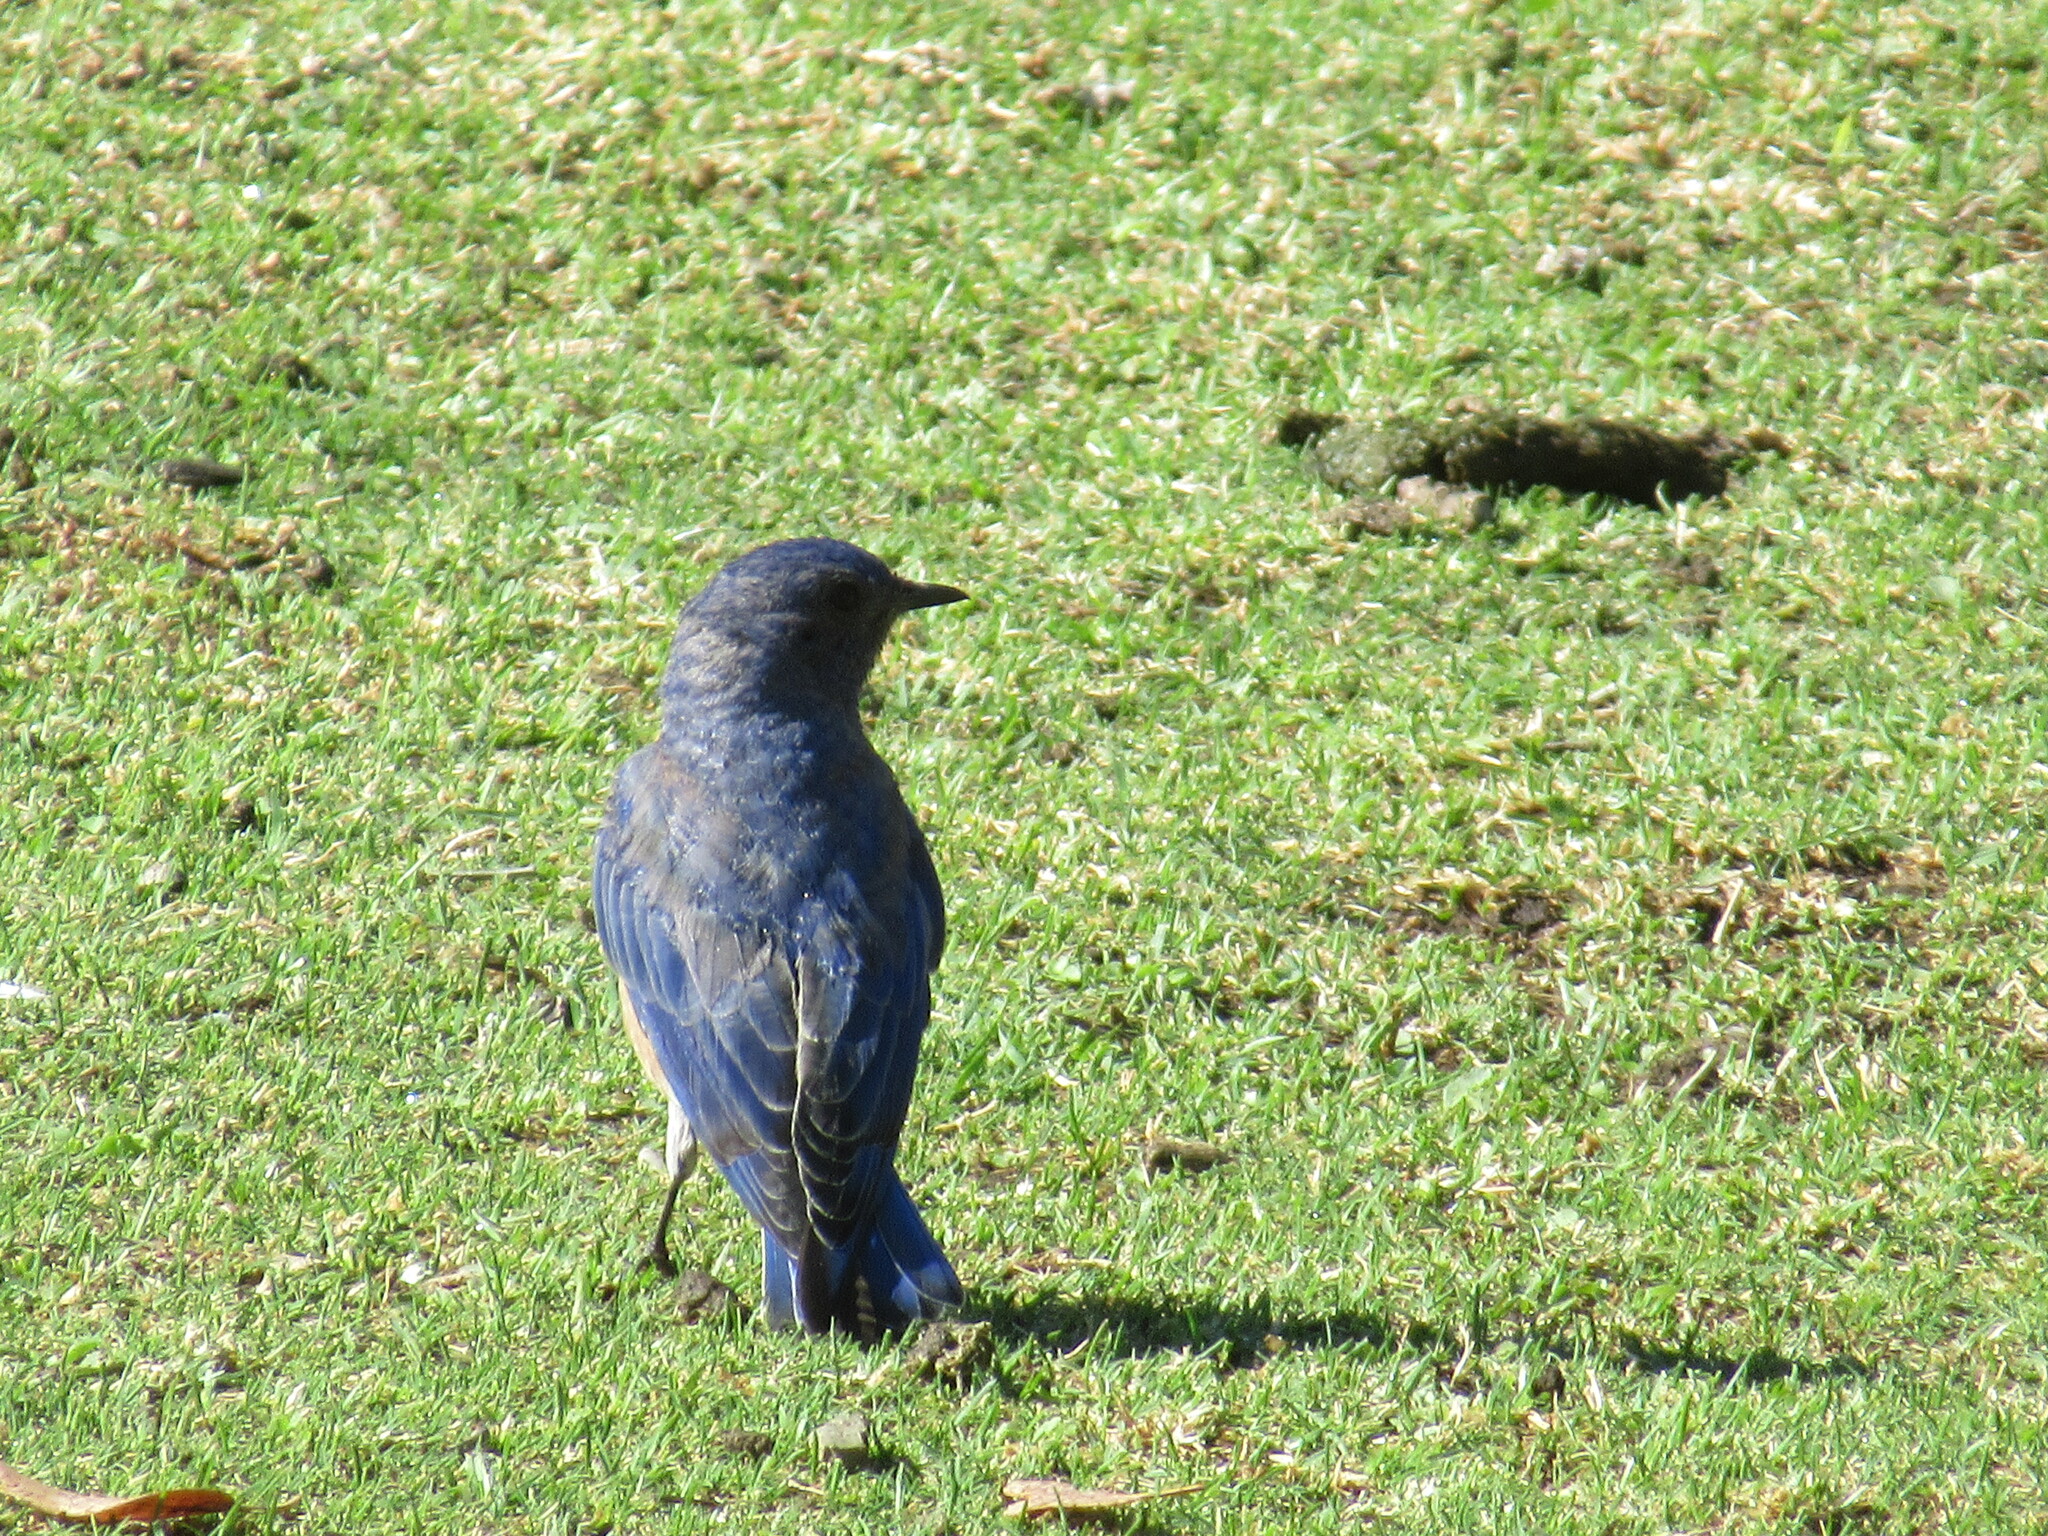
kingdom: Animalia
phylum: Chordata
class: Aves
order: Passeriformes
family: Turdidae
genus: Sialia
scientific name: Sialia mexicana
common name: Western bluebird
